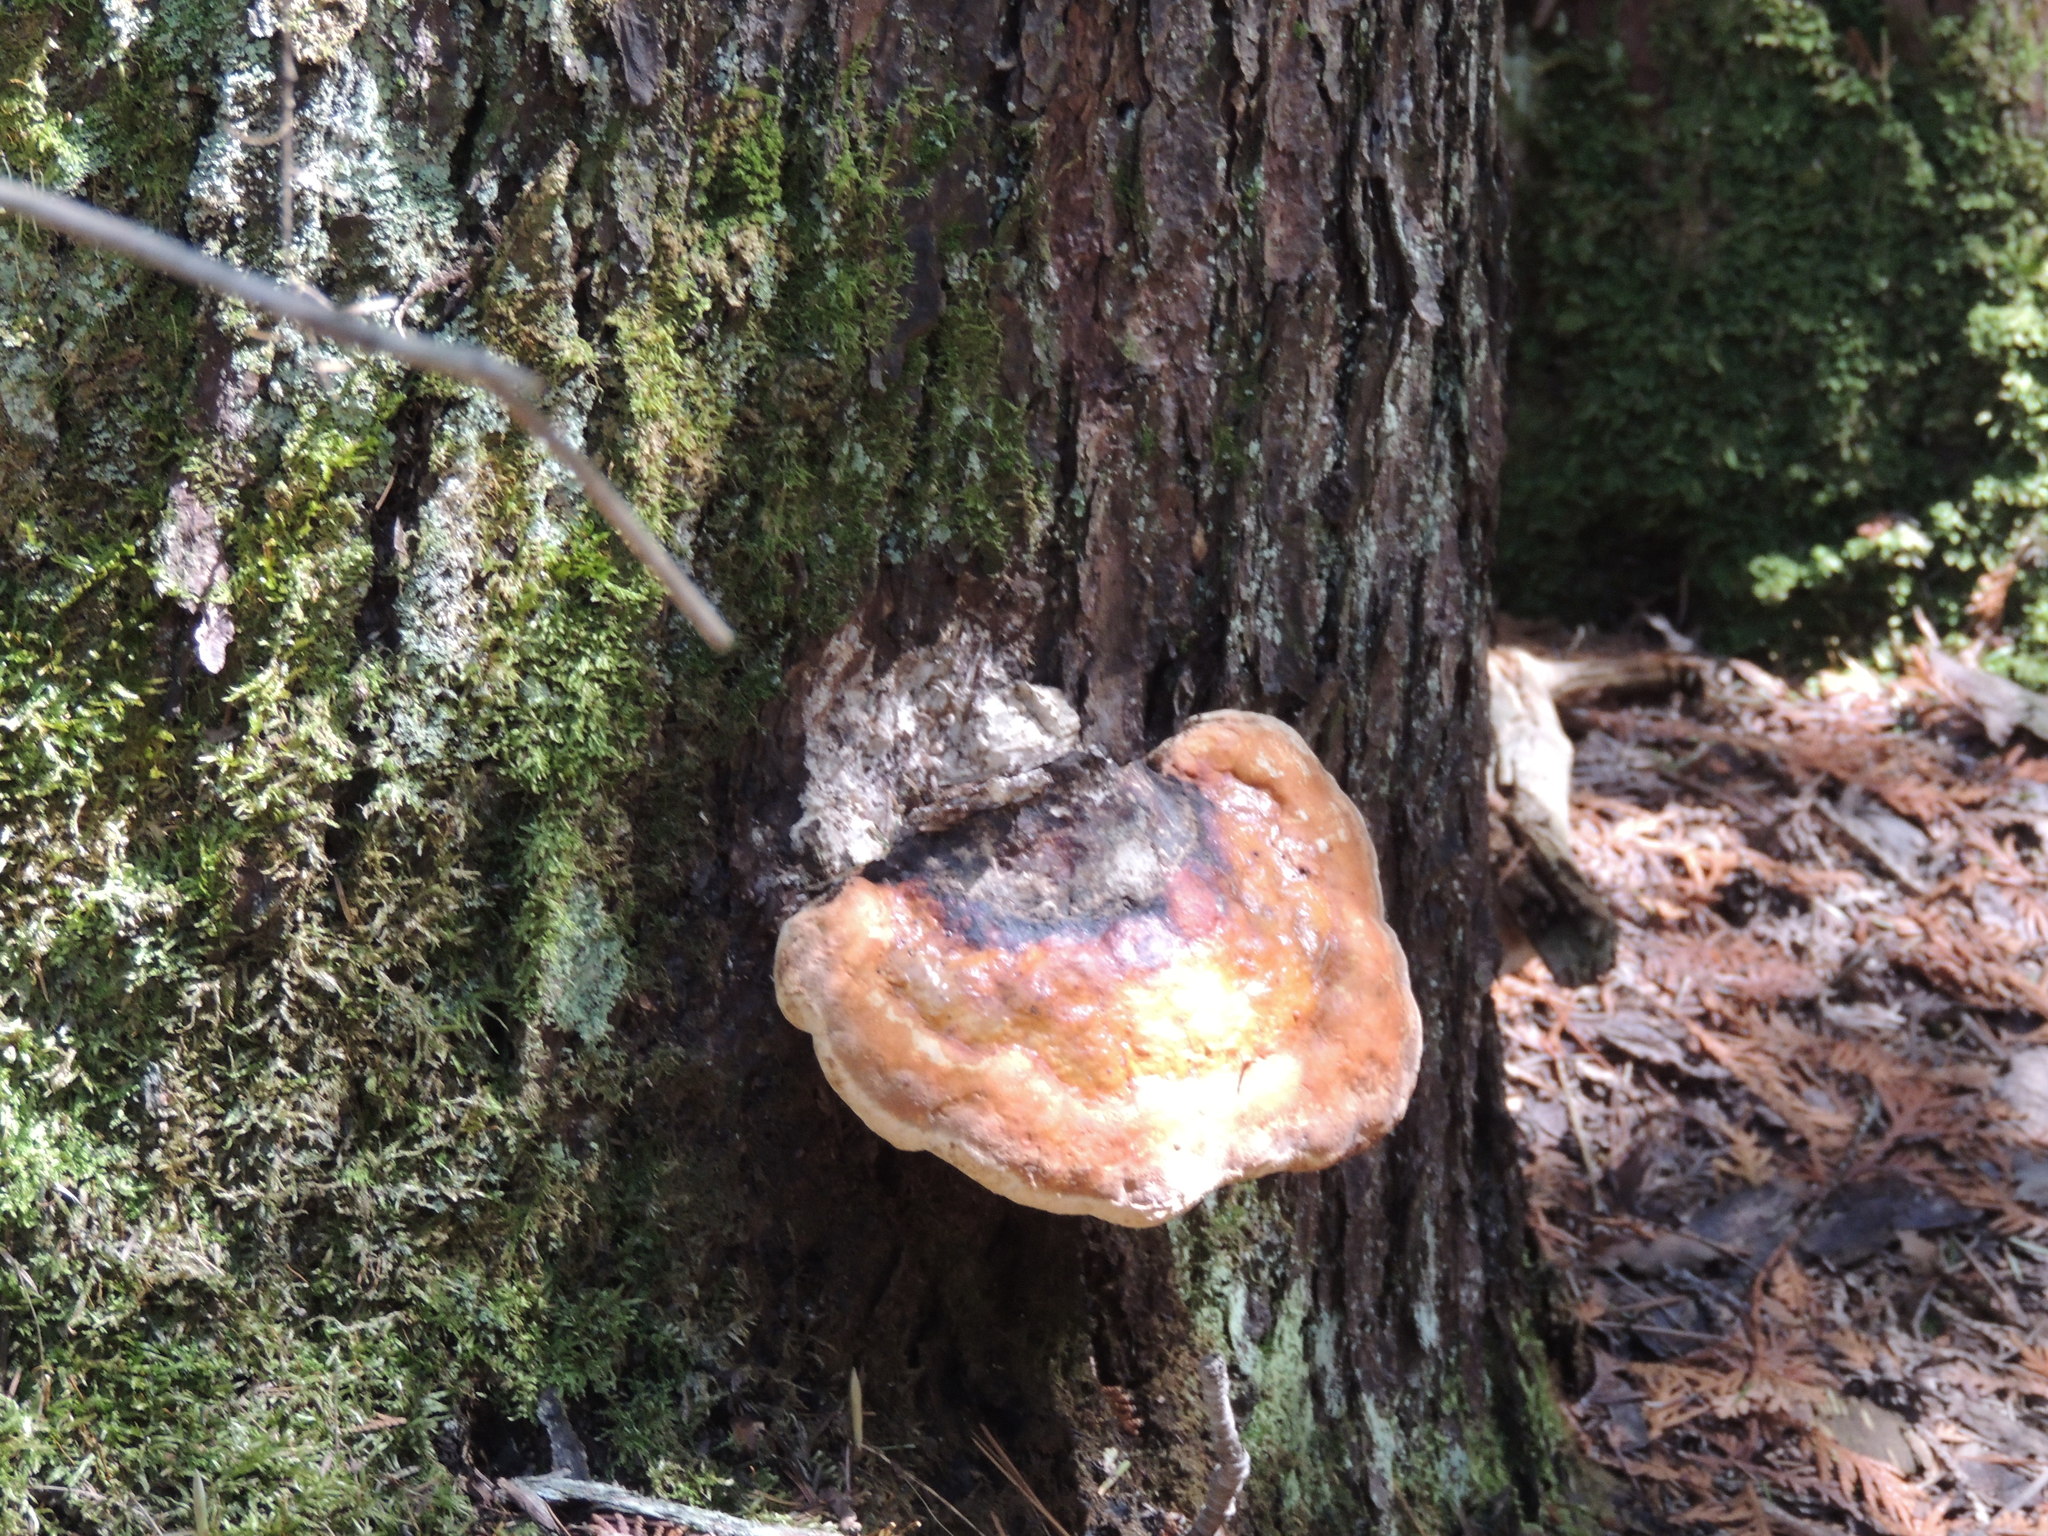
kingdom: Fungi
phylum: Basidiomycota
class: Agaricomycetes
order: Polyporales
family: Fomitopsidaceae
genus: Fomitopsis
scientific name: Fomitopsis mounceae
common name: Northern red belt
